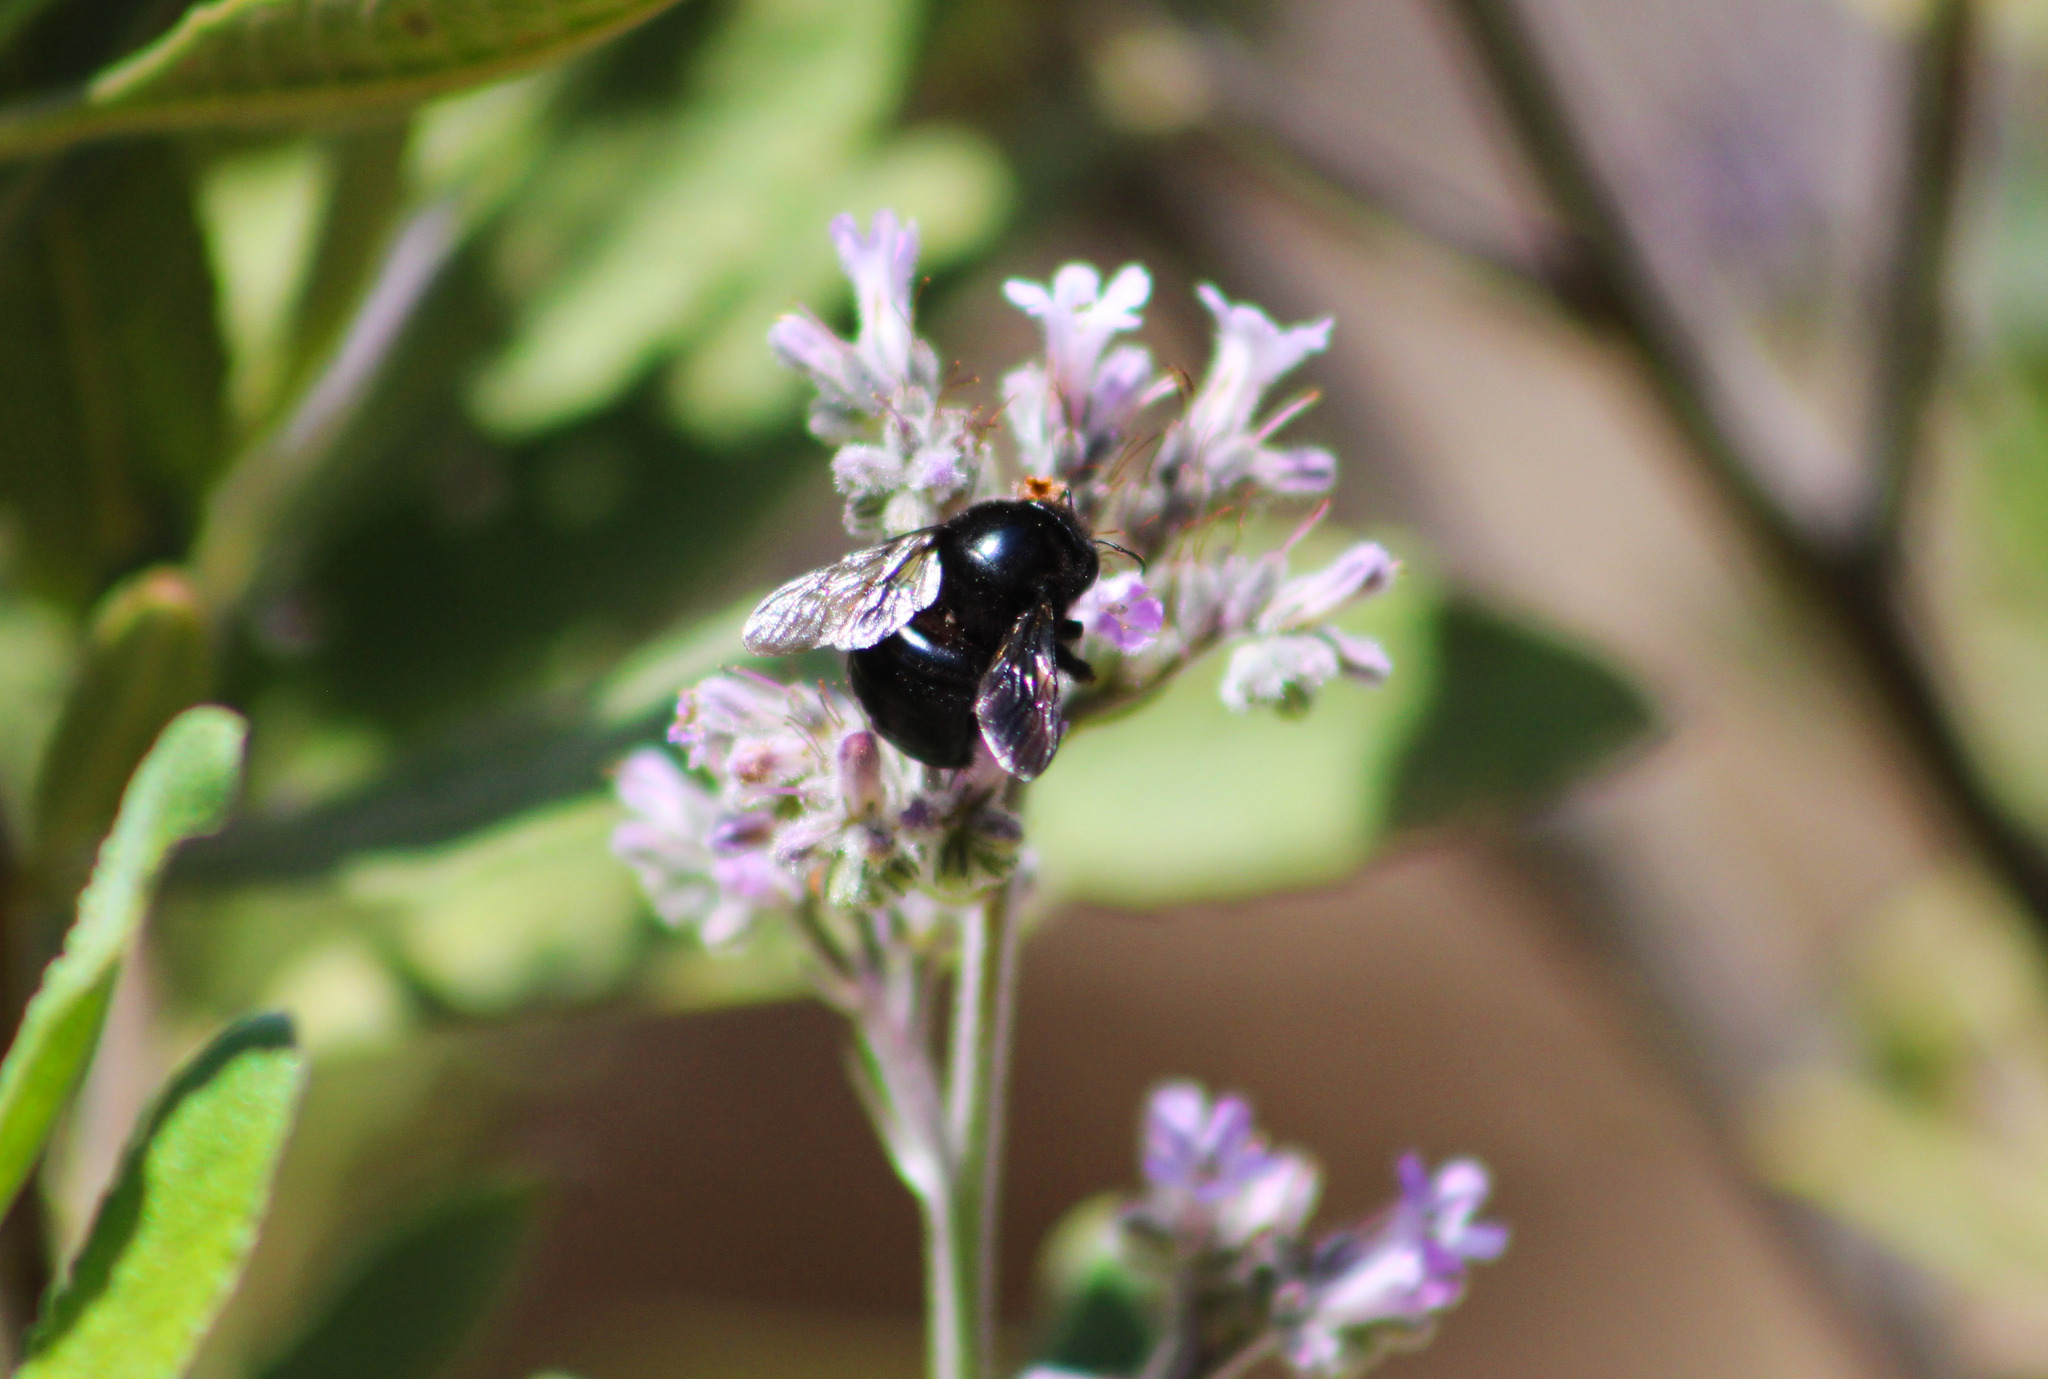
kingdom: Animalia
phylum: Arthropoda
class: Insecta
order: Hymenoptera
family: Apidae
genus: Xylocopa
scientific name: Xylocopa tabaniformis
